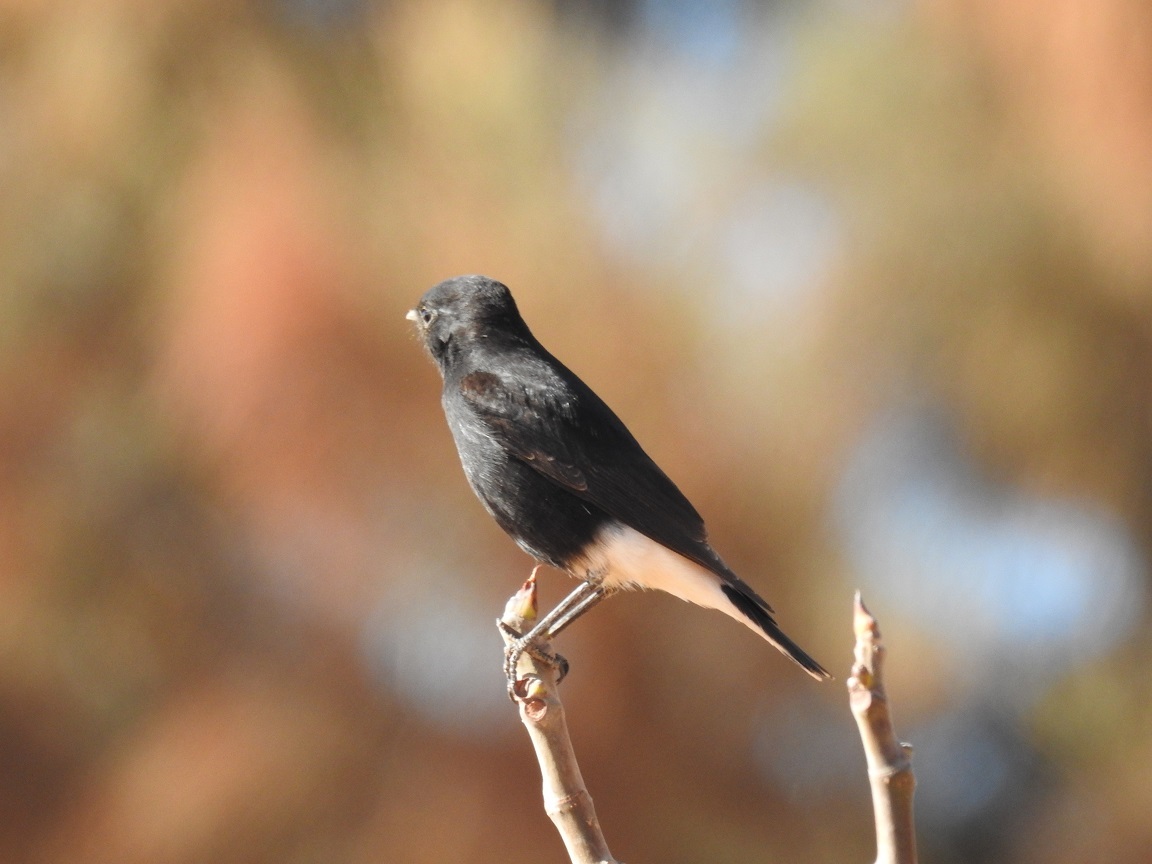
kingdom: Animalia
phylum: Chordata
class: Aves
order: Passeriformes
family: Muscicapidae
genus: Oenanthe
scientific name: Oenanthe leucopyga
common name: White-crowned wheatear
